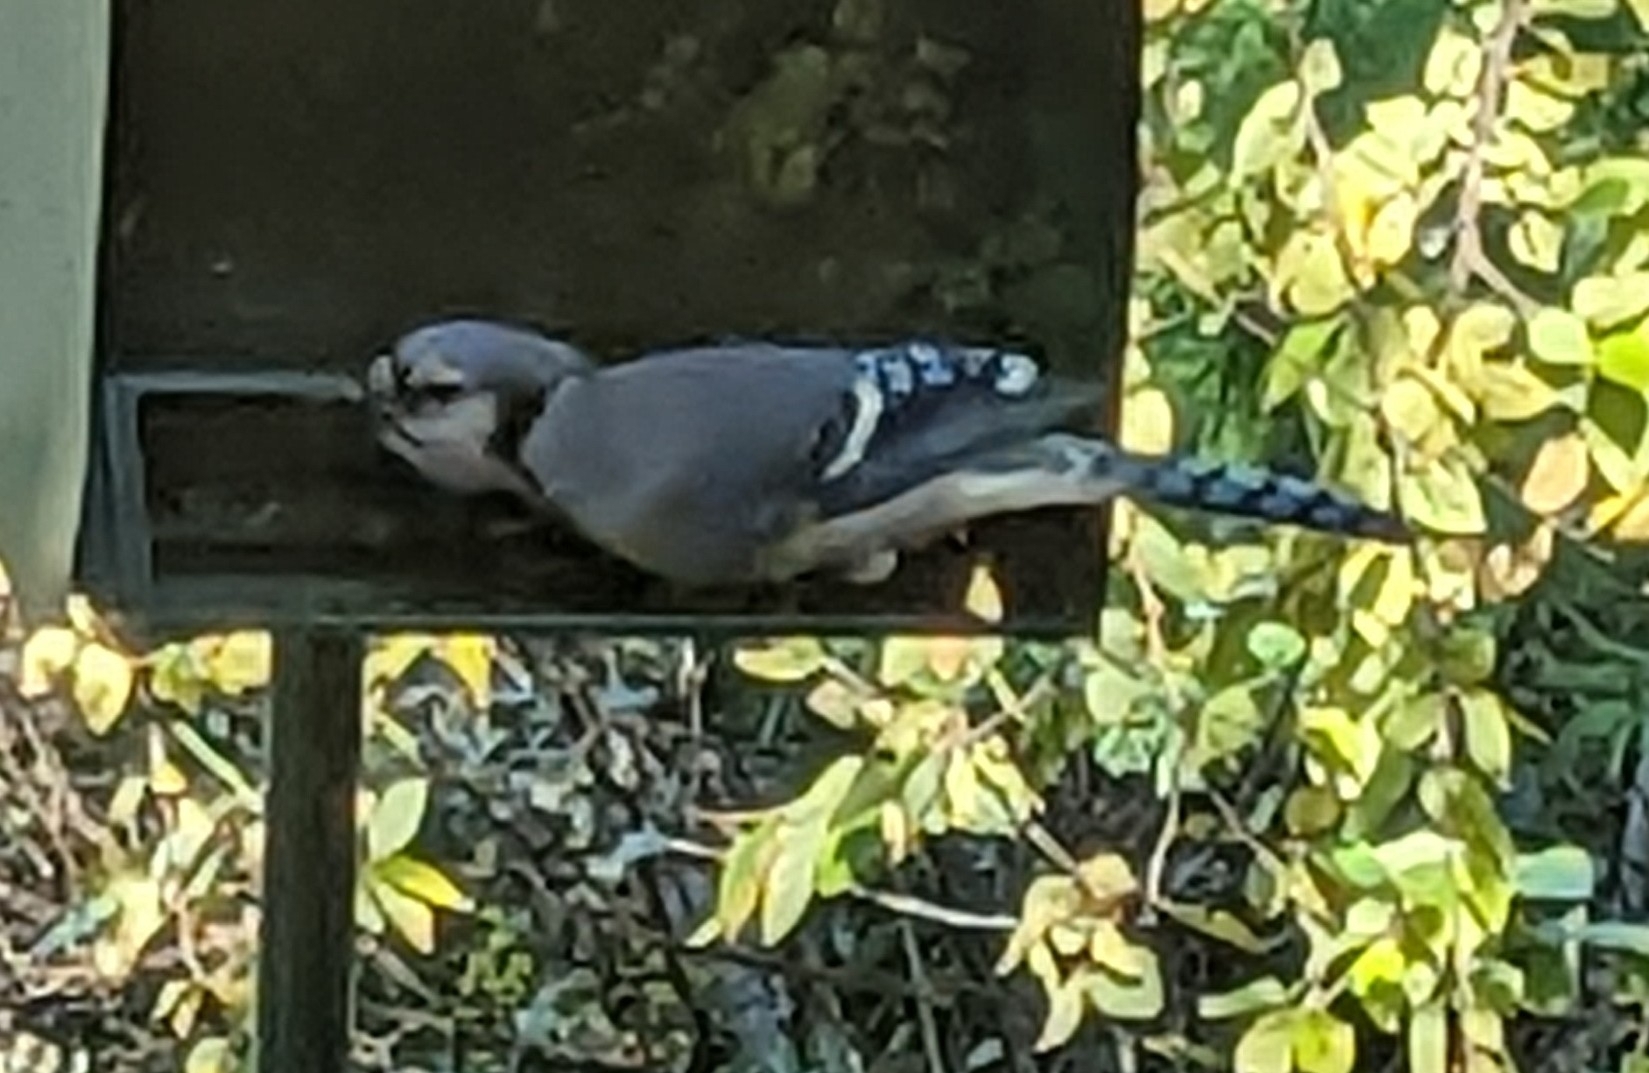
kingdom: Animalia
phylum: Chordata
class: Aves
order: Passeriformes
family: Corvidae
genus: Cyanocitta
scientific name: Cyanocitta cristata
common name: Blue jay
